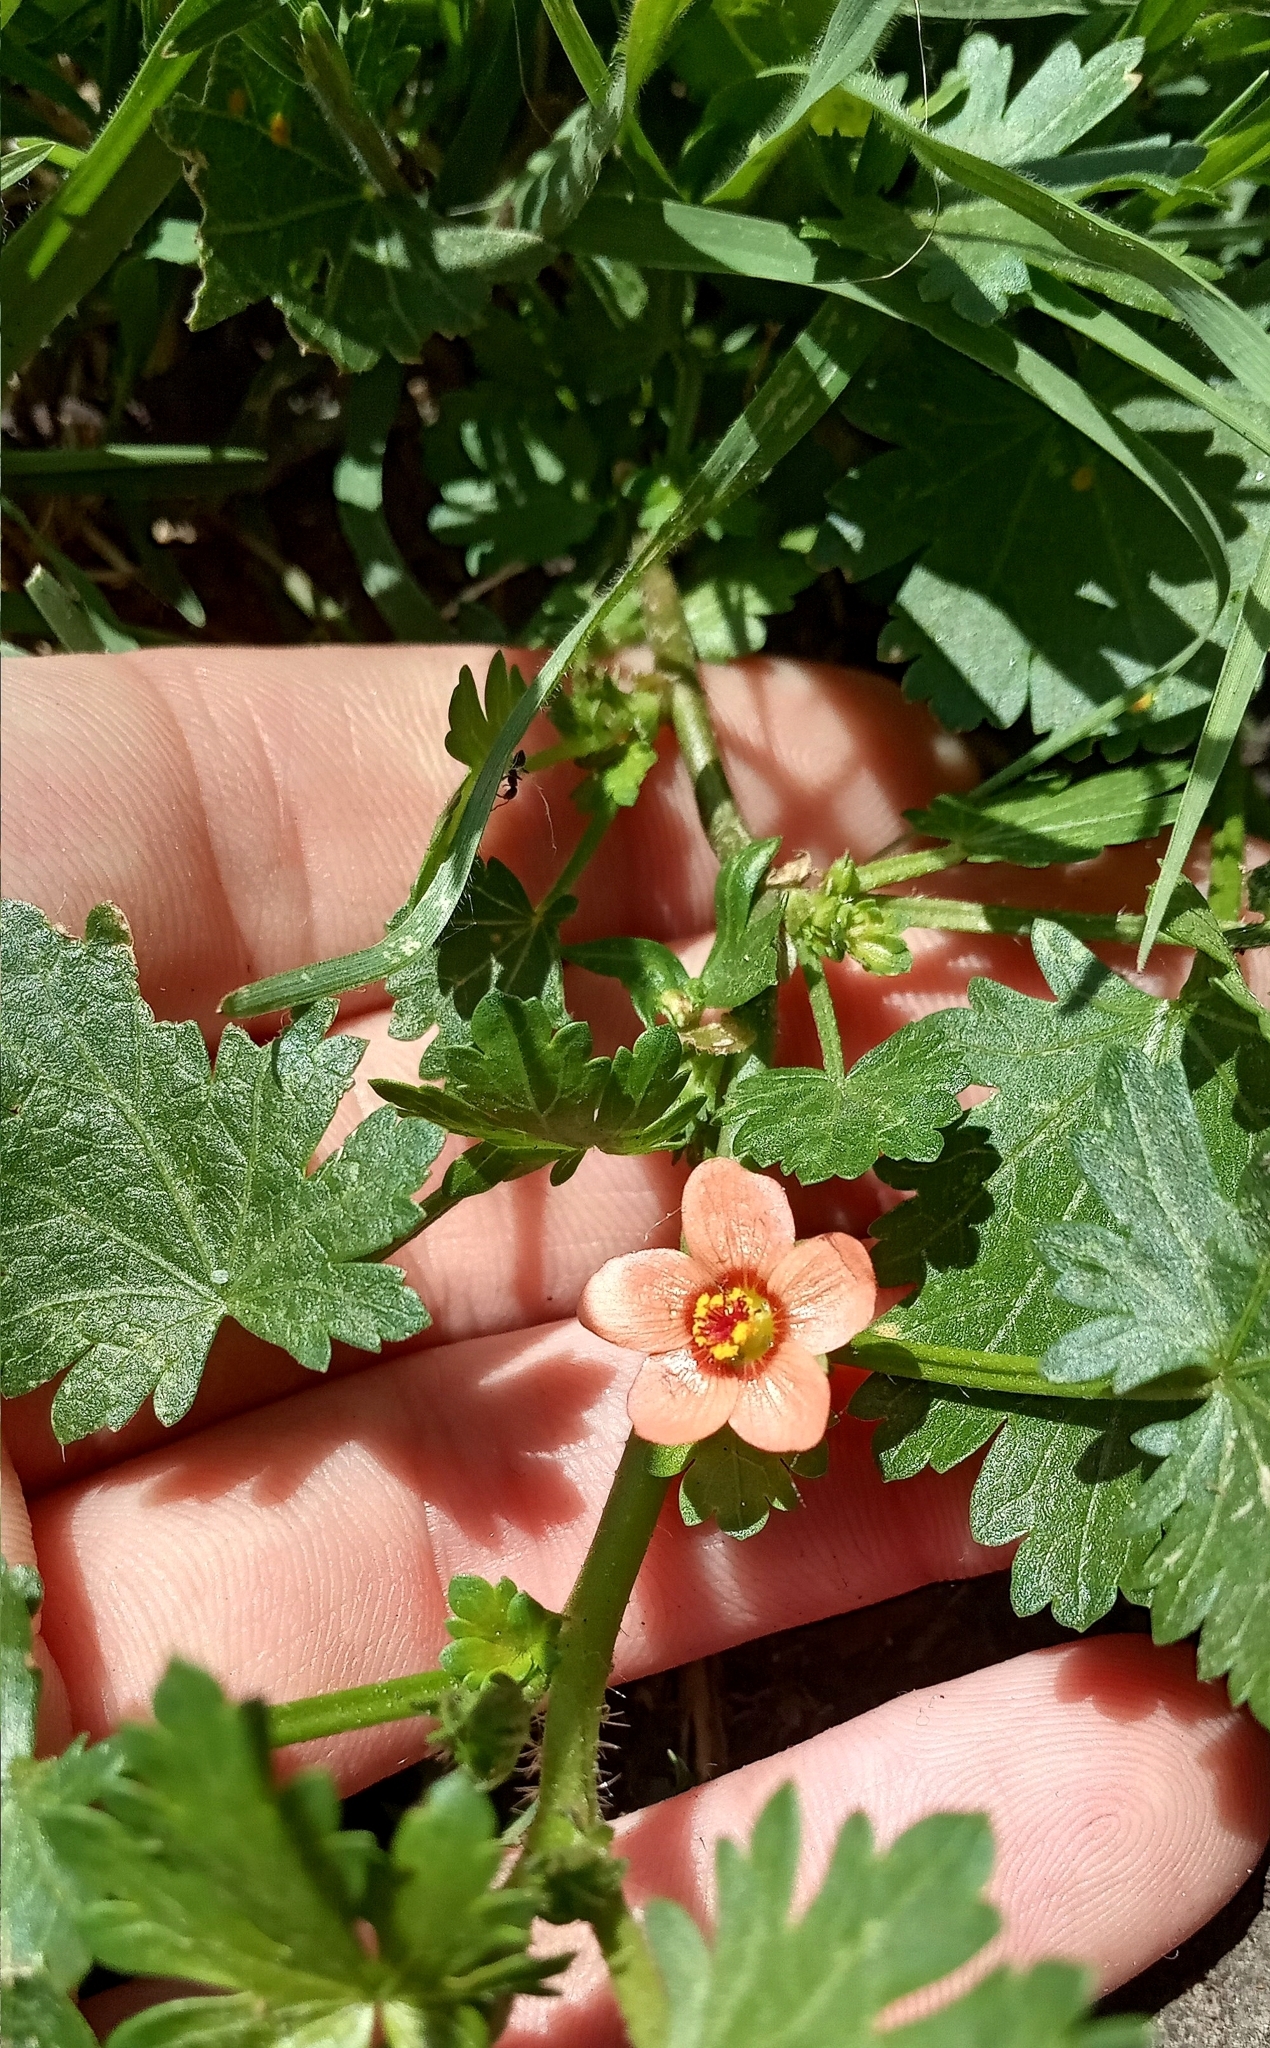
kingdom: Plantae
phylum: Tracheophyta
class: Magnoliopsida
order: Malvales
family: Malvaceae
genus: Modiola
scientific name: Modiola caroliniana
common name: Carolina bristlemallow
